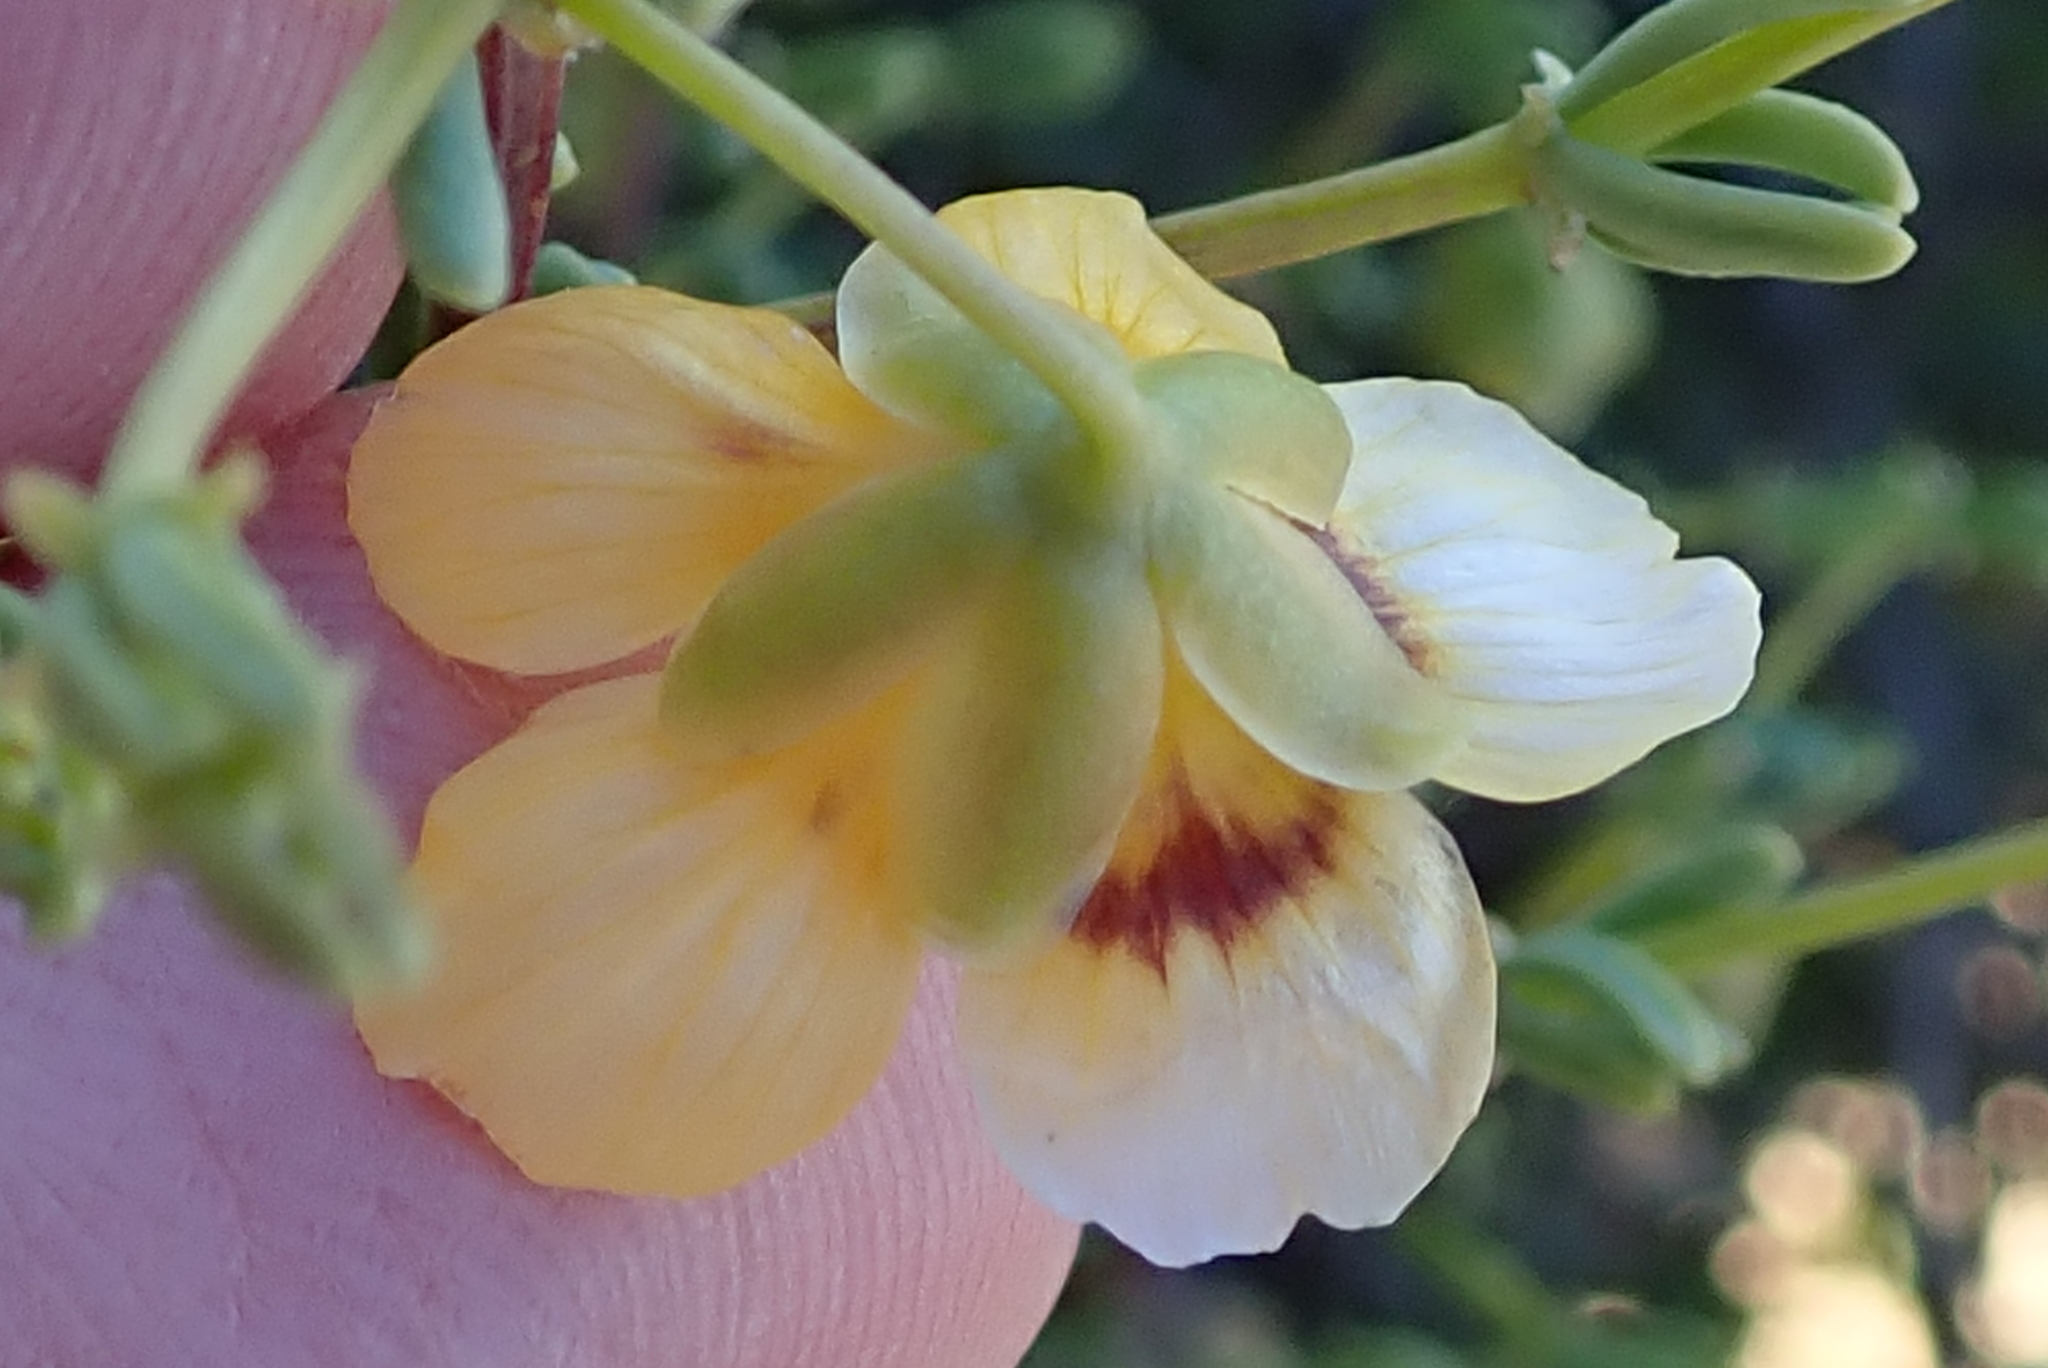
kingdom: Plantae
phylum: Tracheophyta
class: Magnoliopsida
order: Zygophyllales
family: Zygophyllaceae
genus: Roepera
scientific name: Roepera foetida
